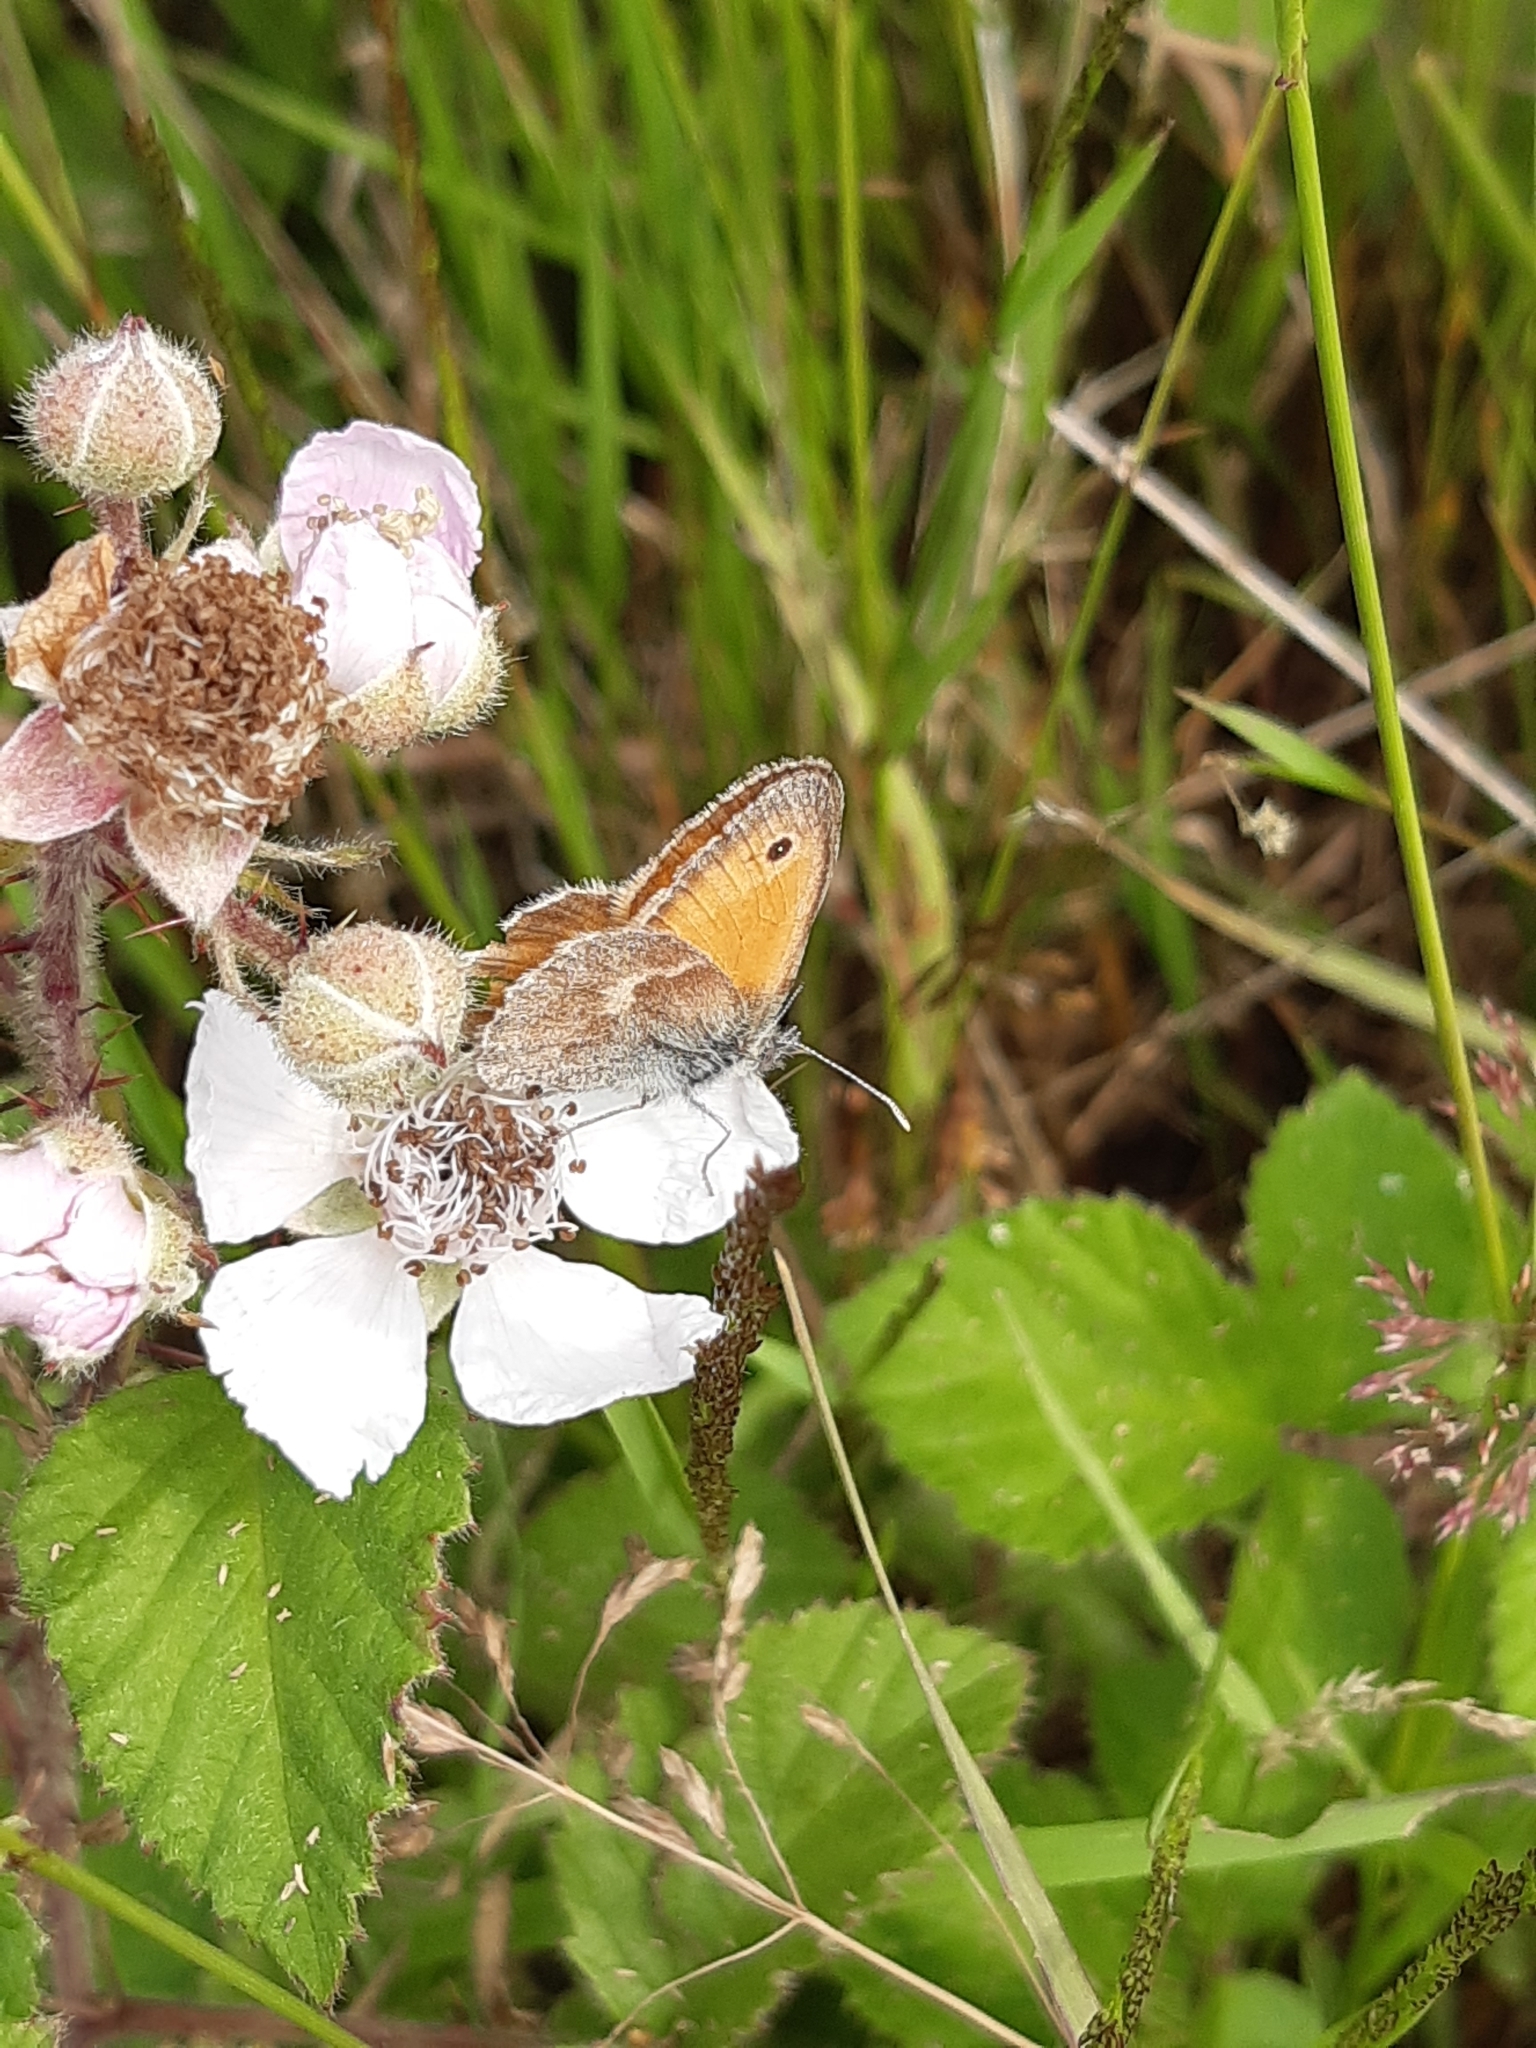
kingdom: Animalia
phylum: Arthropoda
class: Insecta
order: Lepidoptera
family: Nymphalidae
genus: Coenonympha
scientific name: Coenonympha pamphilus
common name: Small heath
